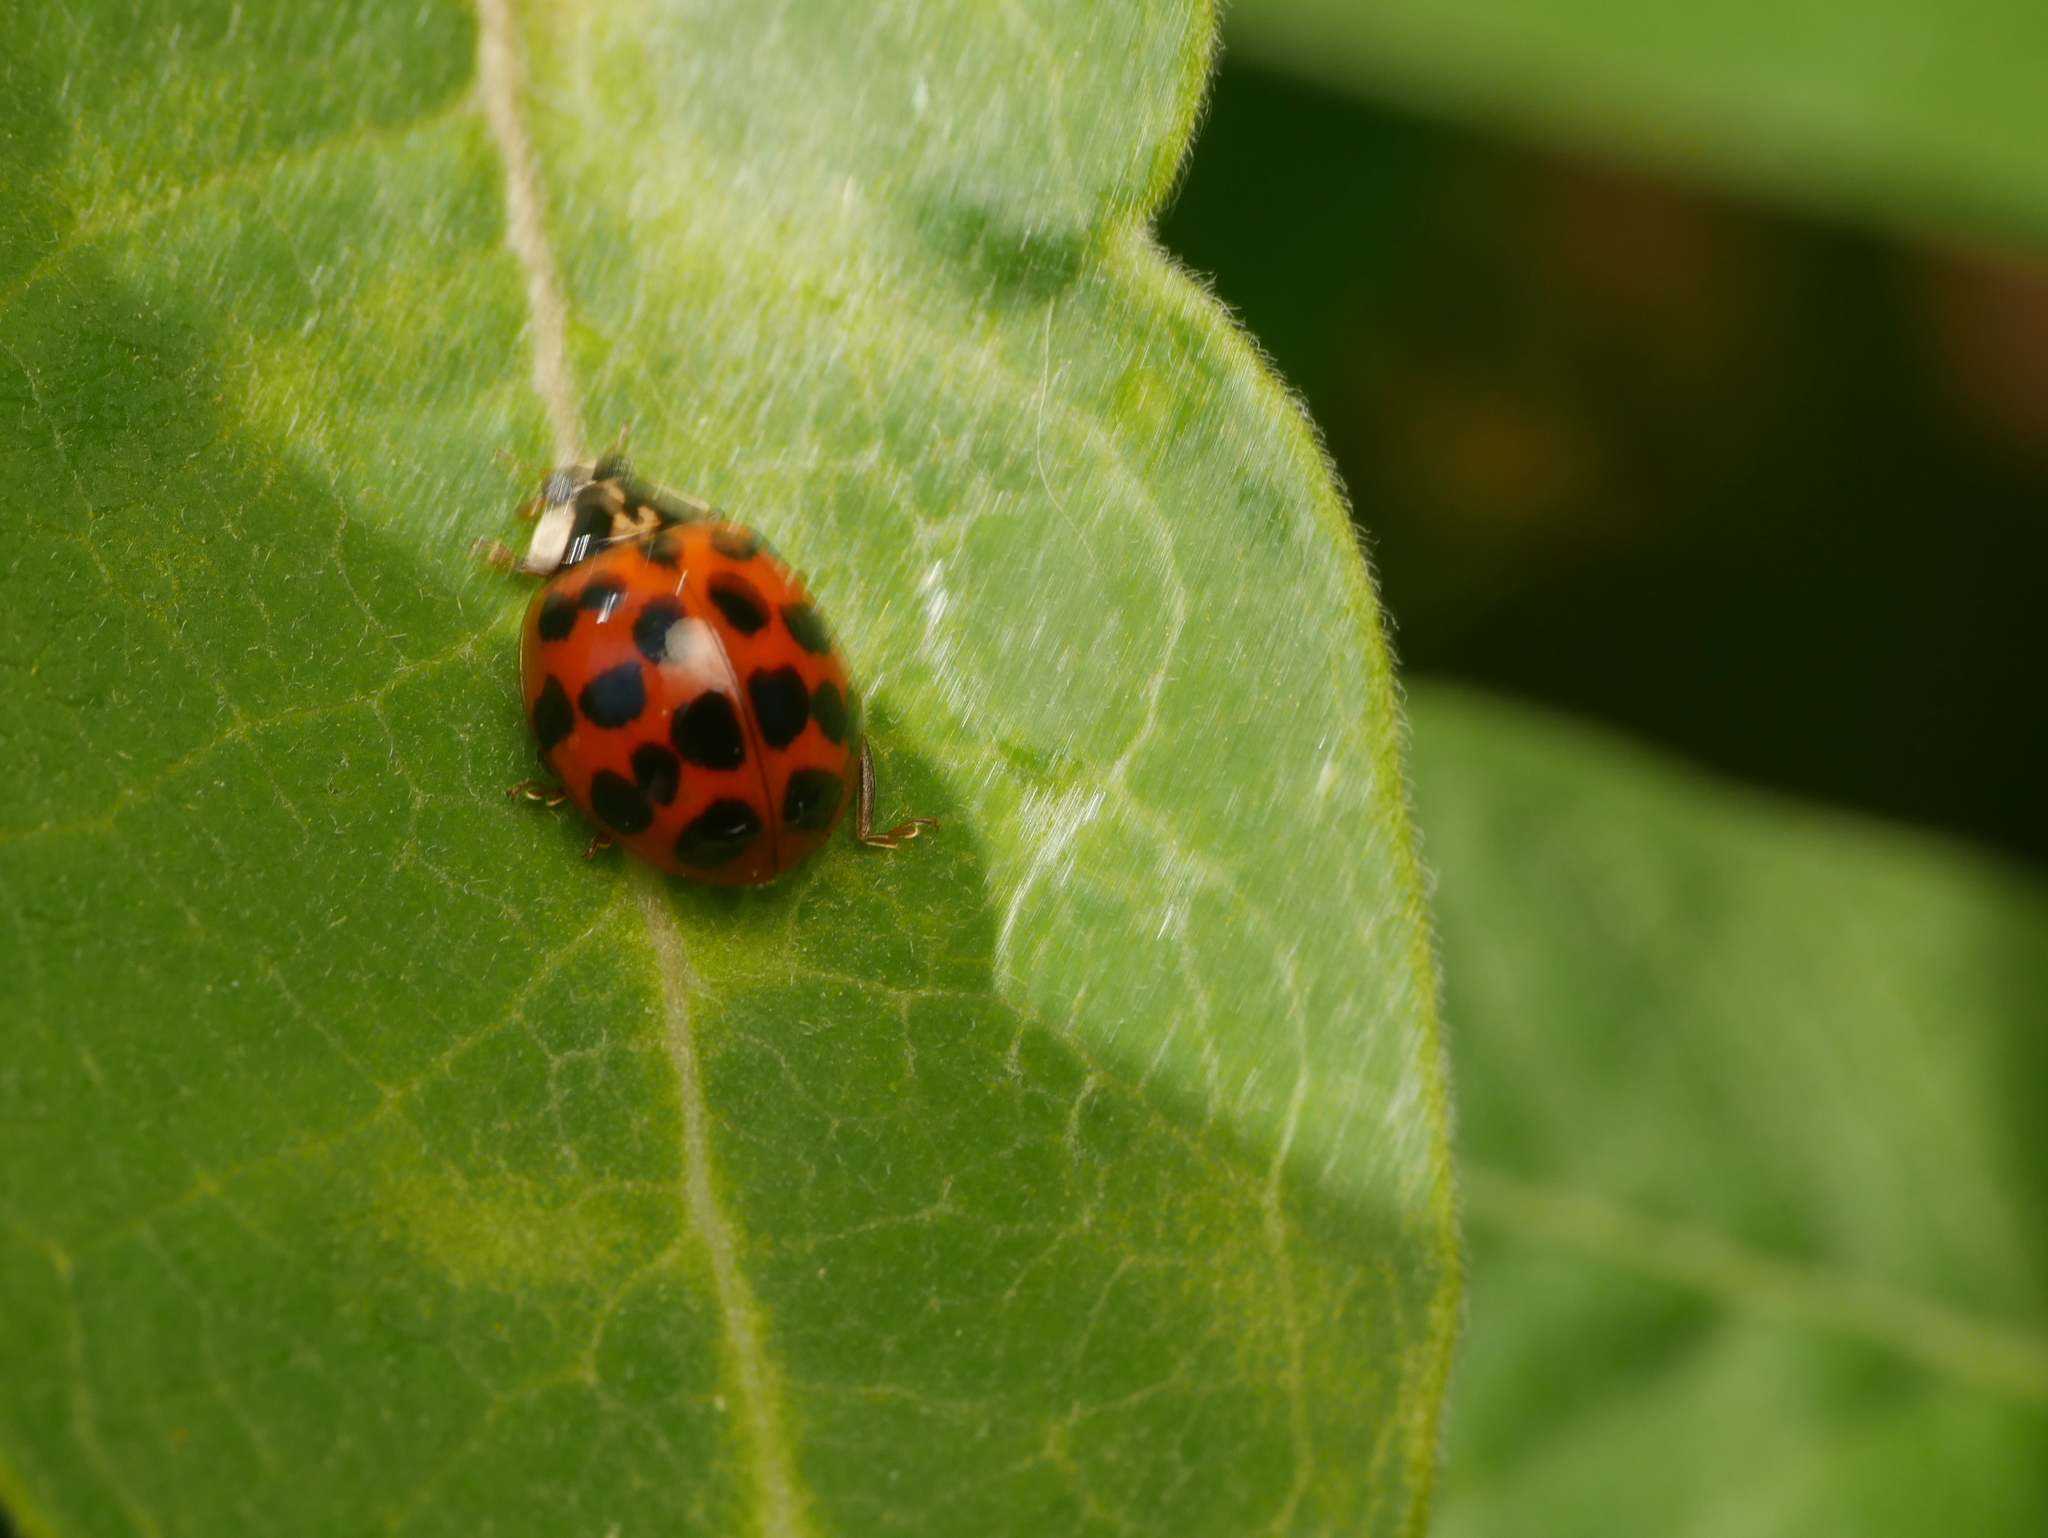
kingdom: Animalia
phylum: Arthropoda
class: Insecta
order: Coleoptera
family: Coccinellidae
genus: Harmonia
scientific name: Harmonia axyridis
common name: Harlequin ladybird
